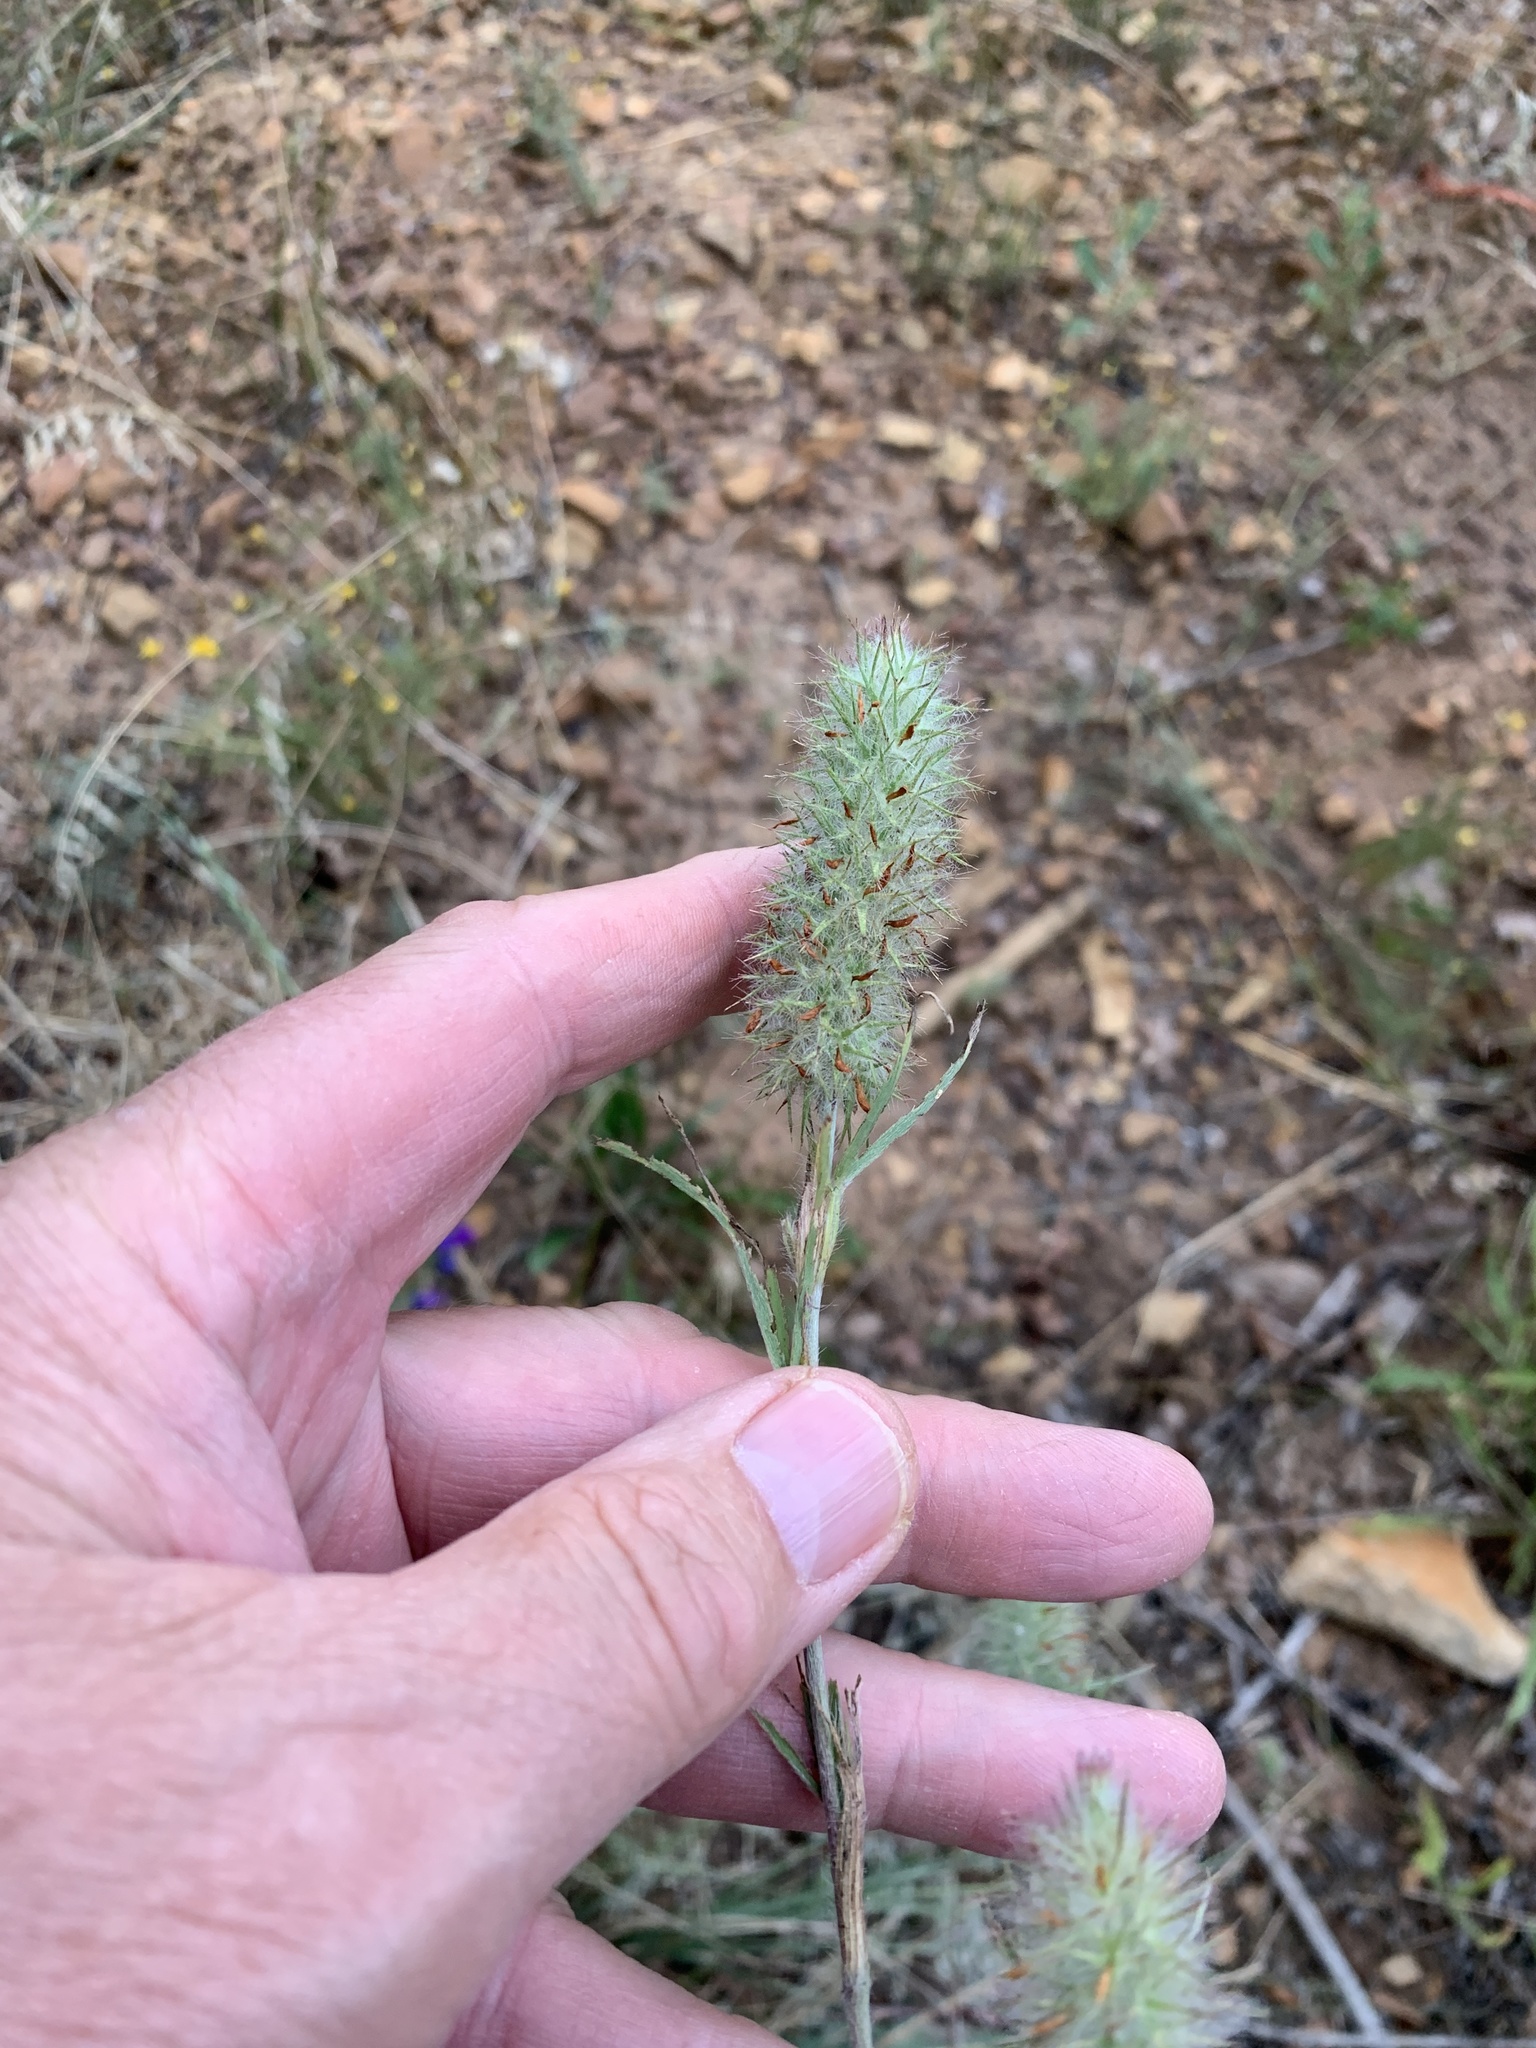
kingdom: Plantae
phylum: Tracheophyta
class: Magnoliopsida
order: Fabales
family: Fabaceae
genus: Trifolium
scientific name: Trifolium angustifolium
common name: Narrow clover
